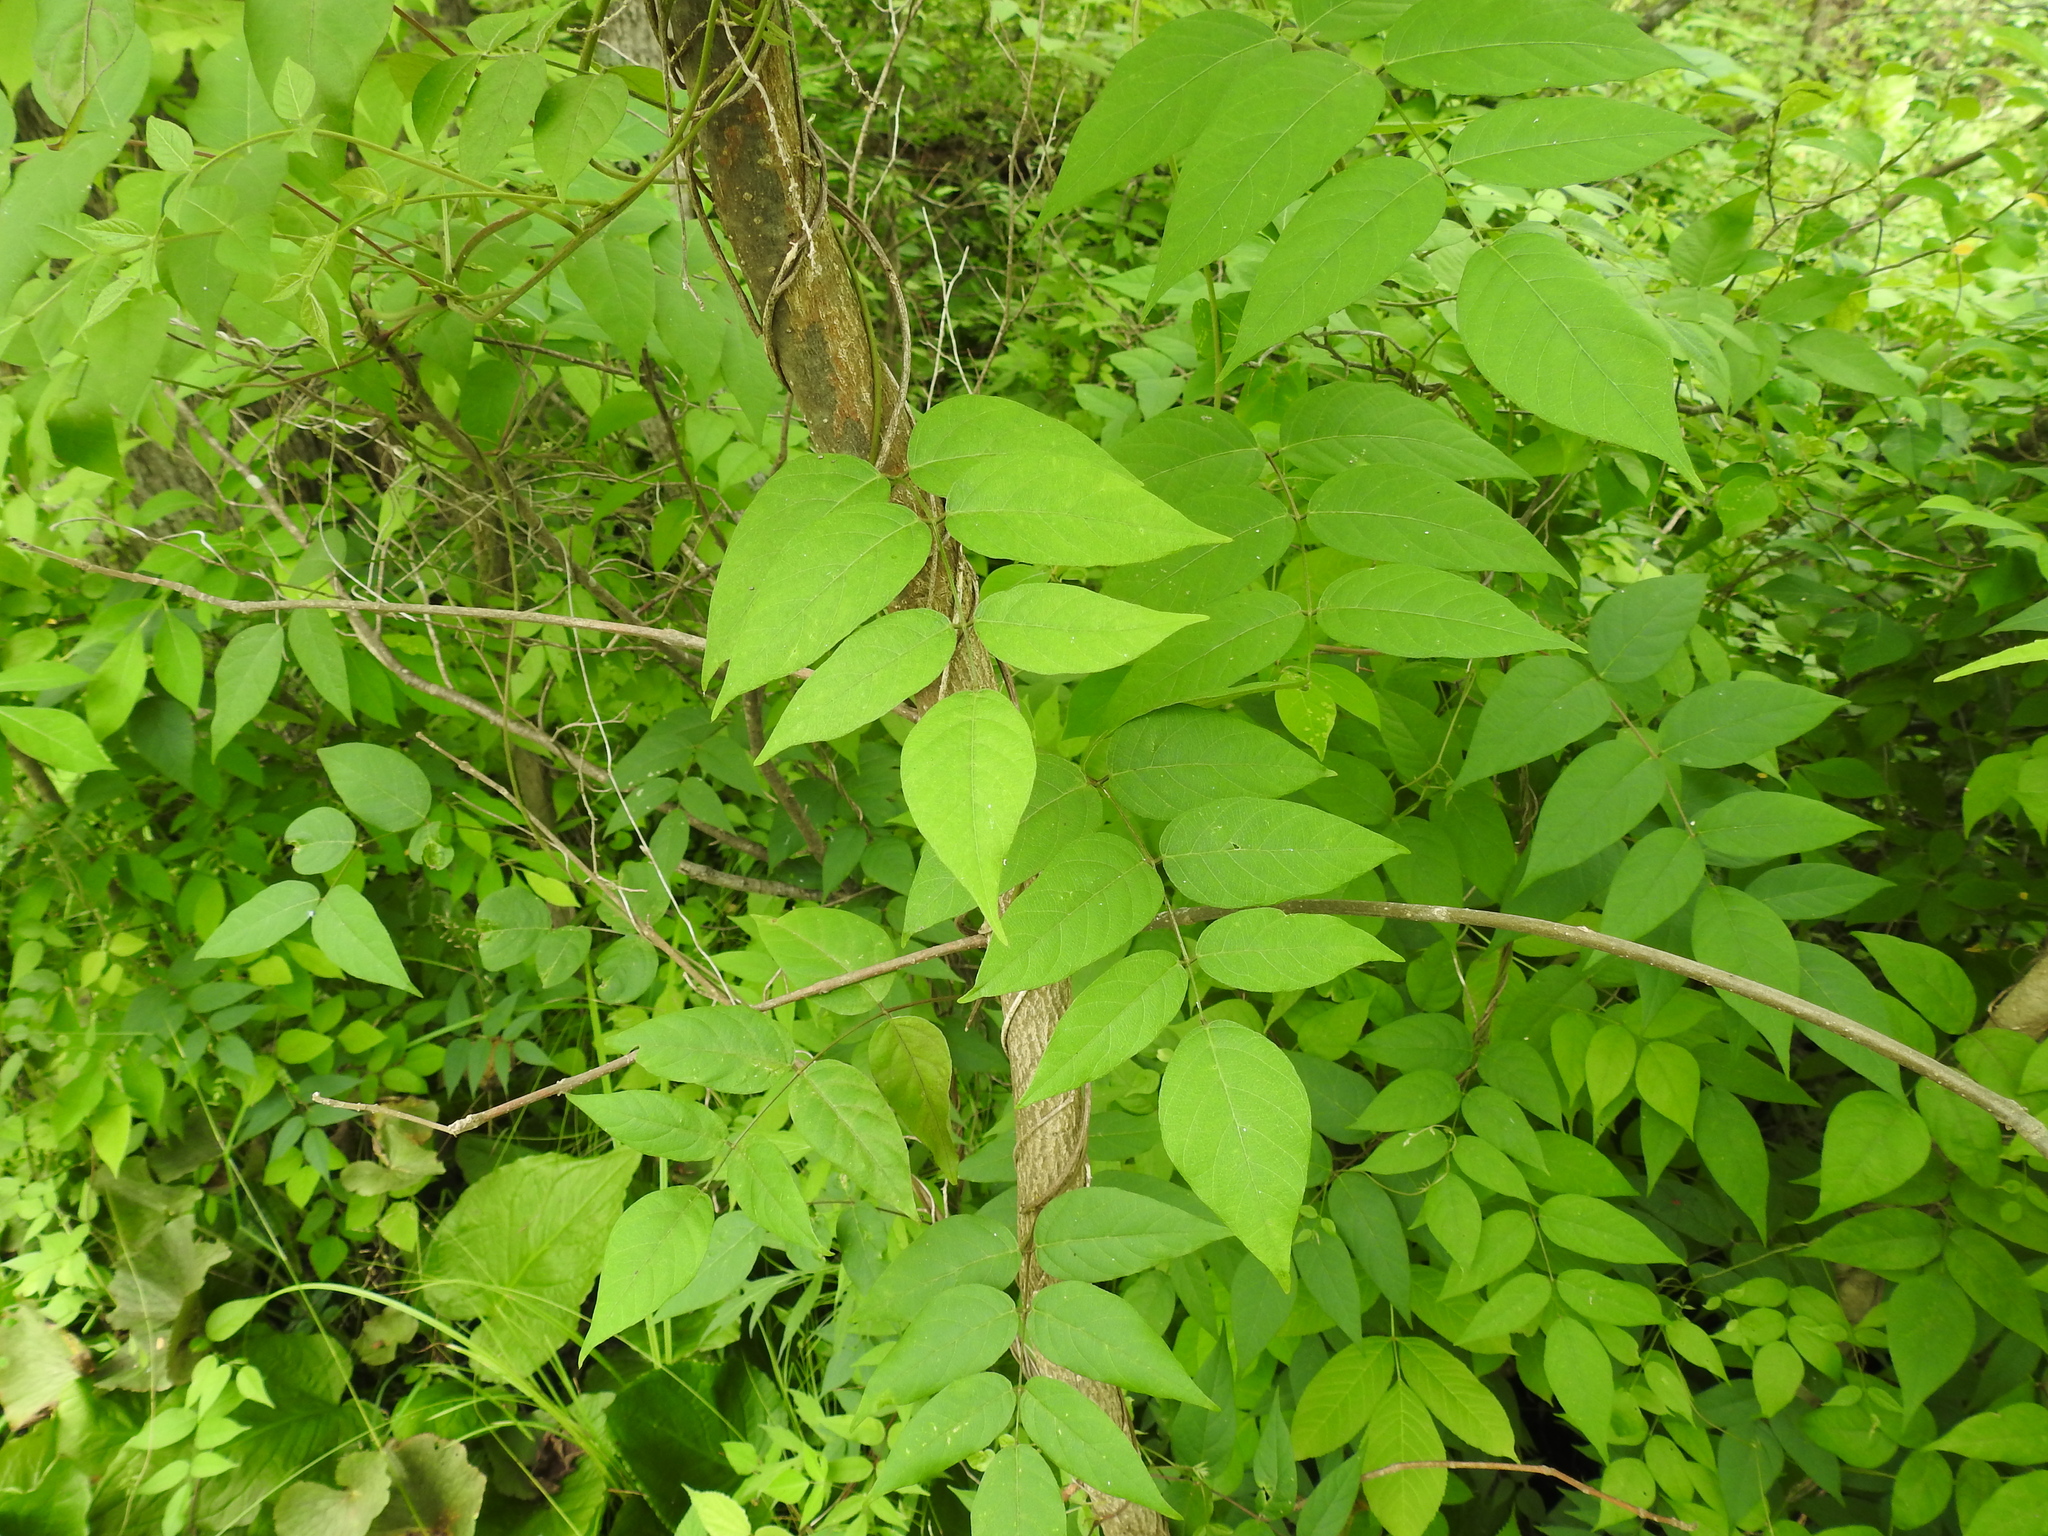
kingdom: Plantae
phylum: Tracheophyta
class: Magnoliopsida
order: Fabales
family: Fabaceae
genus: Apios
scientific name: Apios americana
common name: American potato-bean
